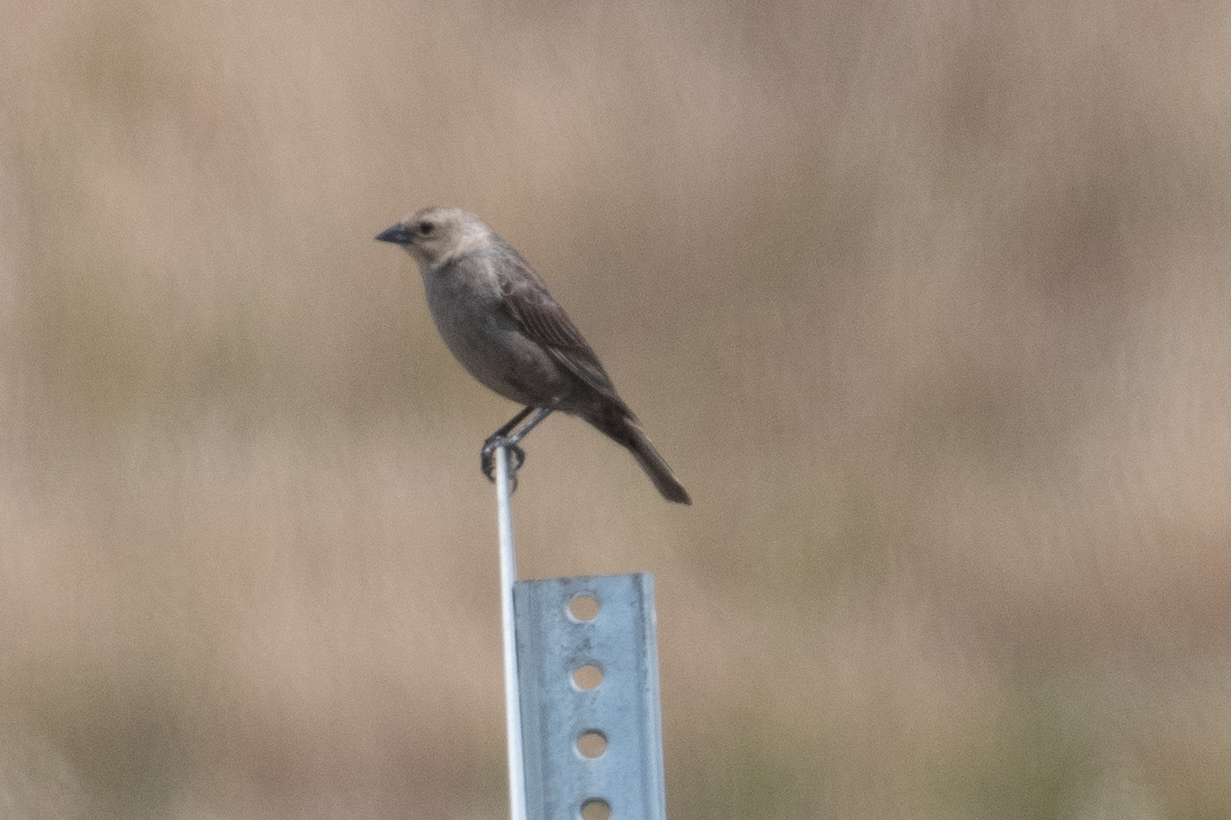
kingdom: Animalia
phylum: Chordata
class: Aves
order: Passeriformes
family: Icteridae
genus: Molothrus
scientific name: Molothrus ater
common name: Brown-headed cowbird
